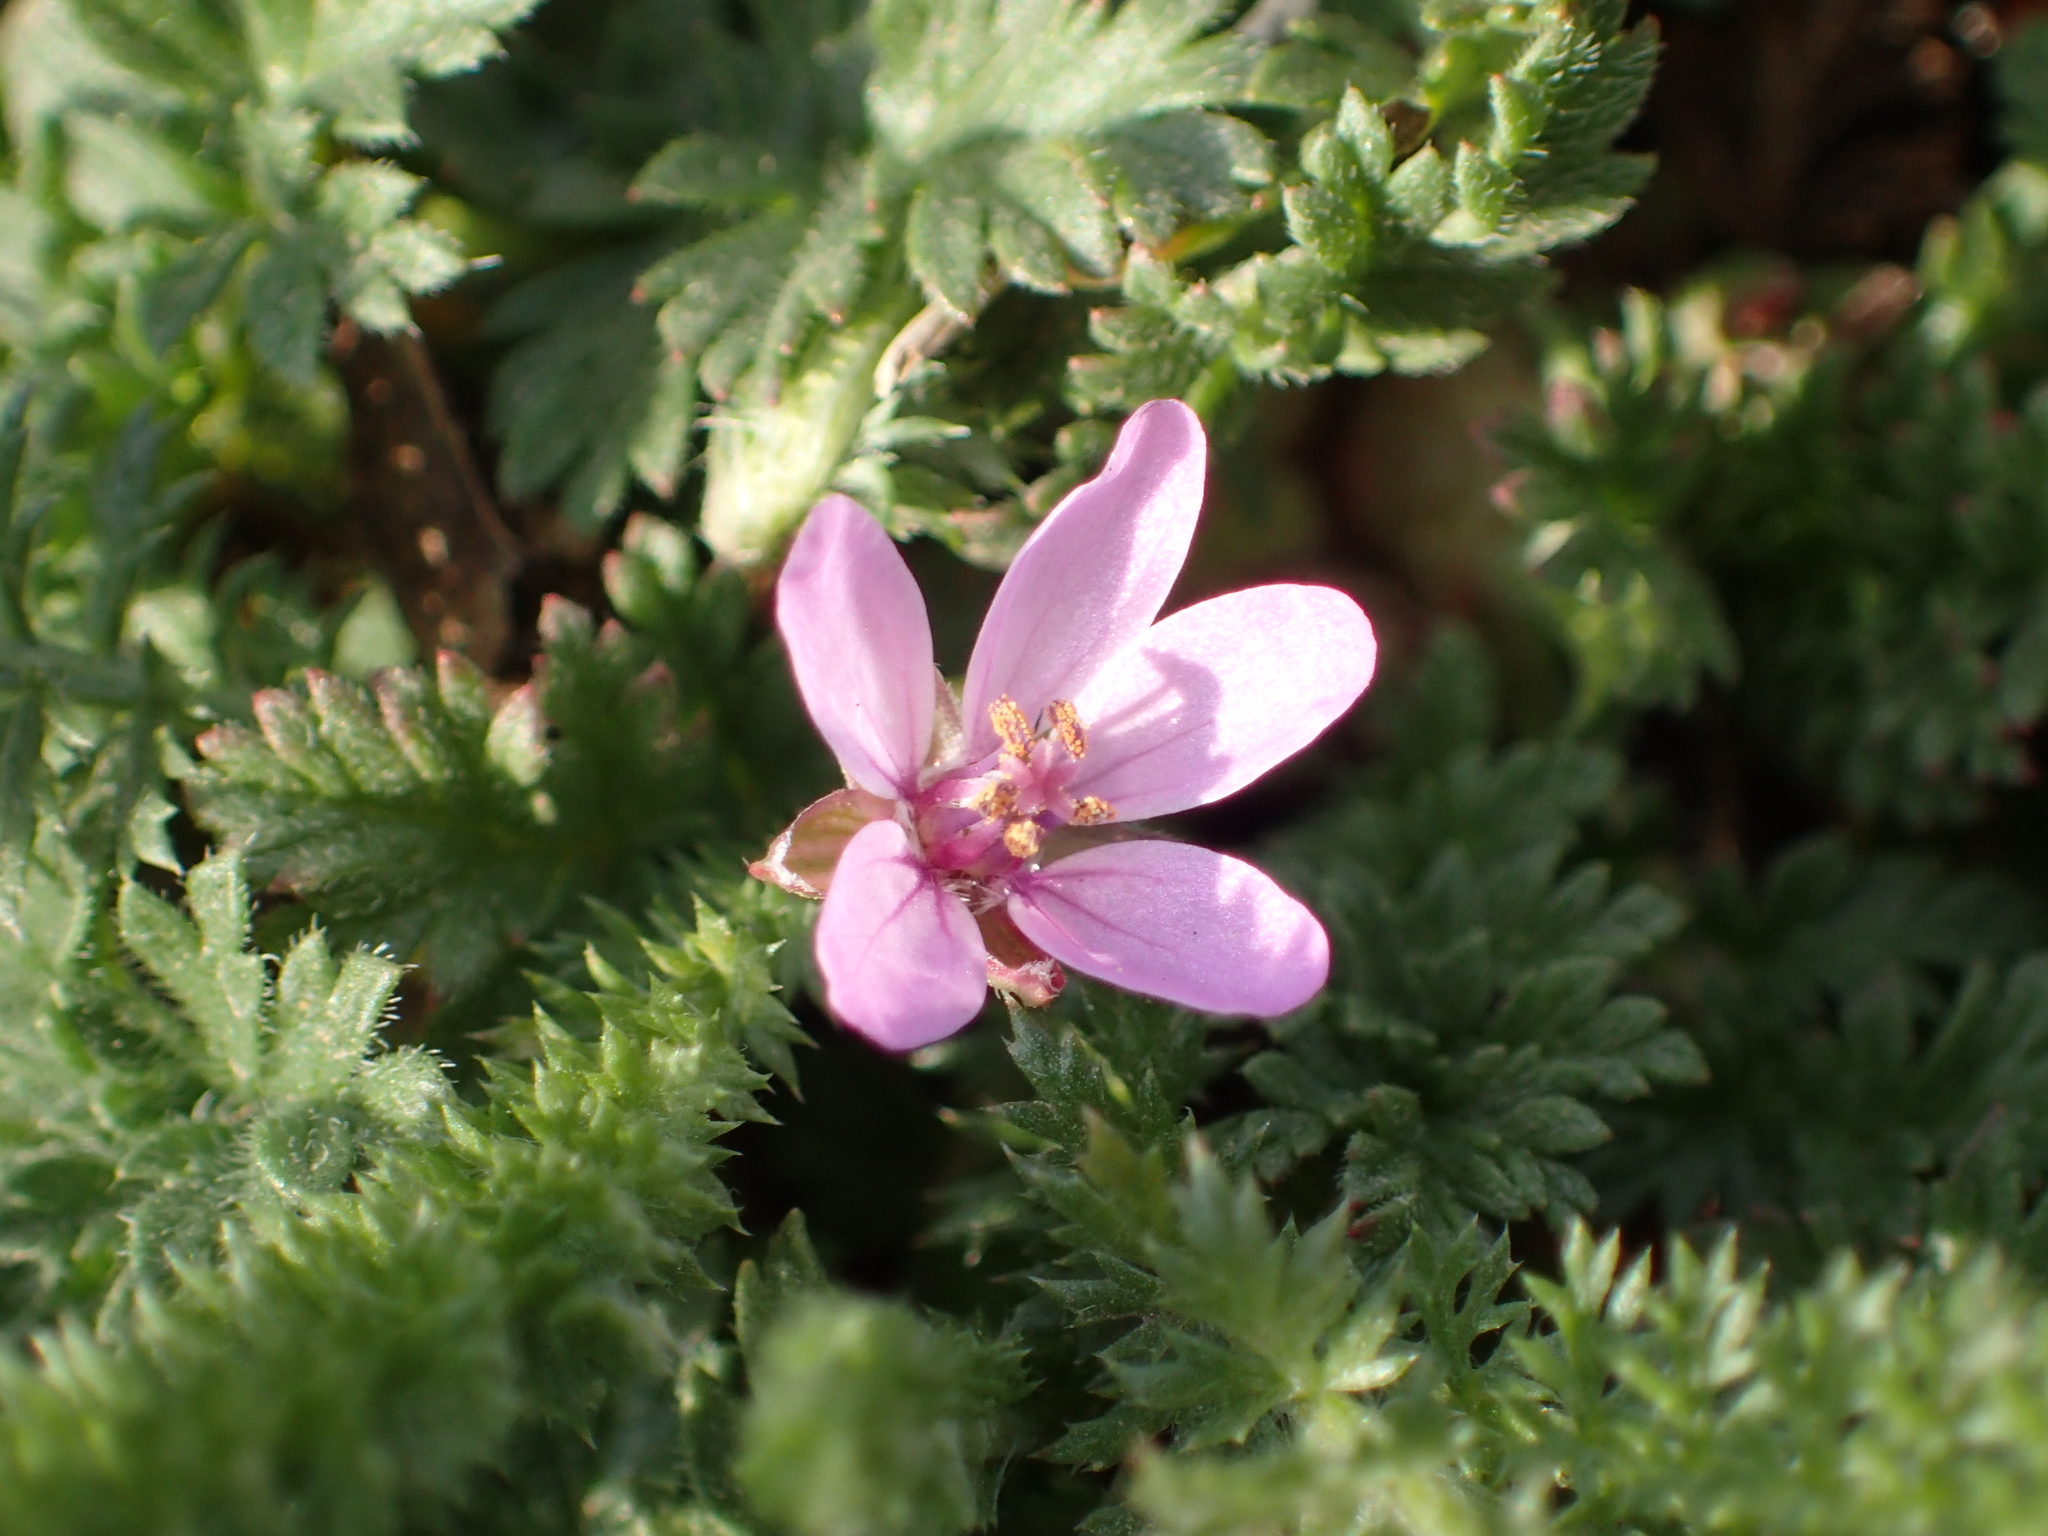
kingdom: Plantae
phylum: Tracheophyta
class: Magnoliopsida
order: Geraniales
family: Geraniaceae
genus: Erodium
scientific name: Erodium cicutarium
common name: Common stork's-bill
